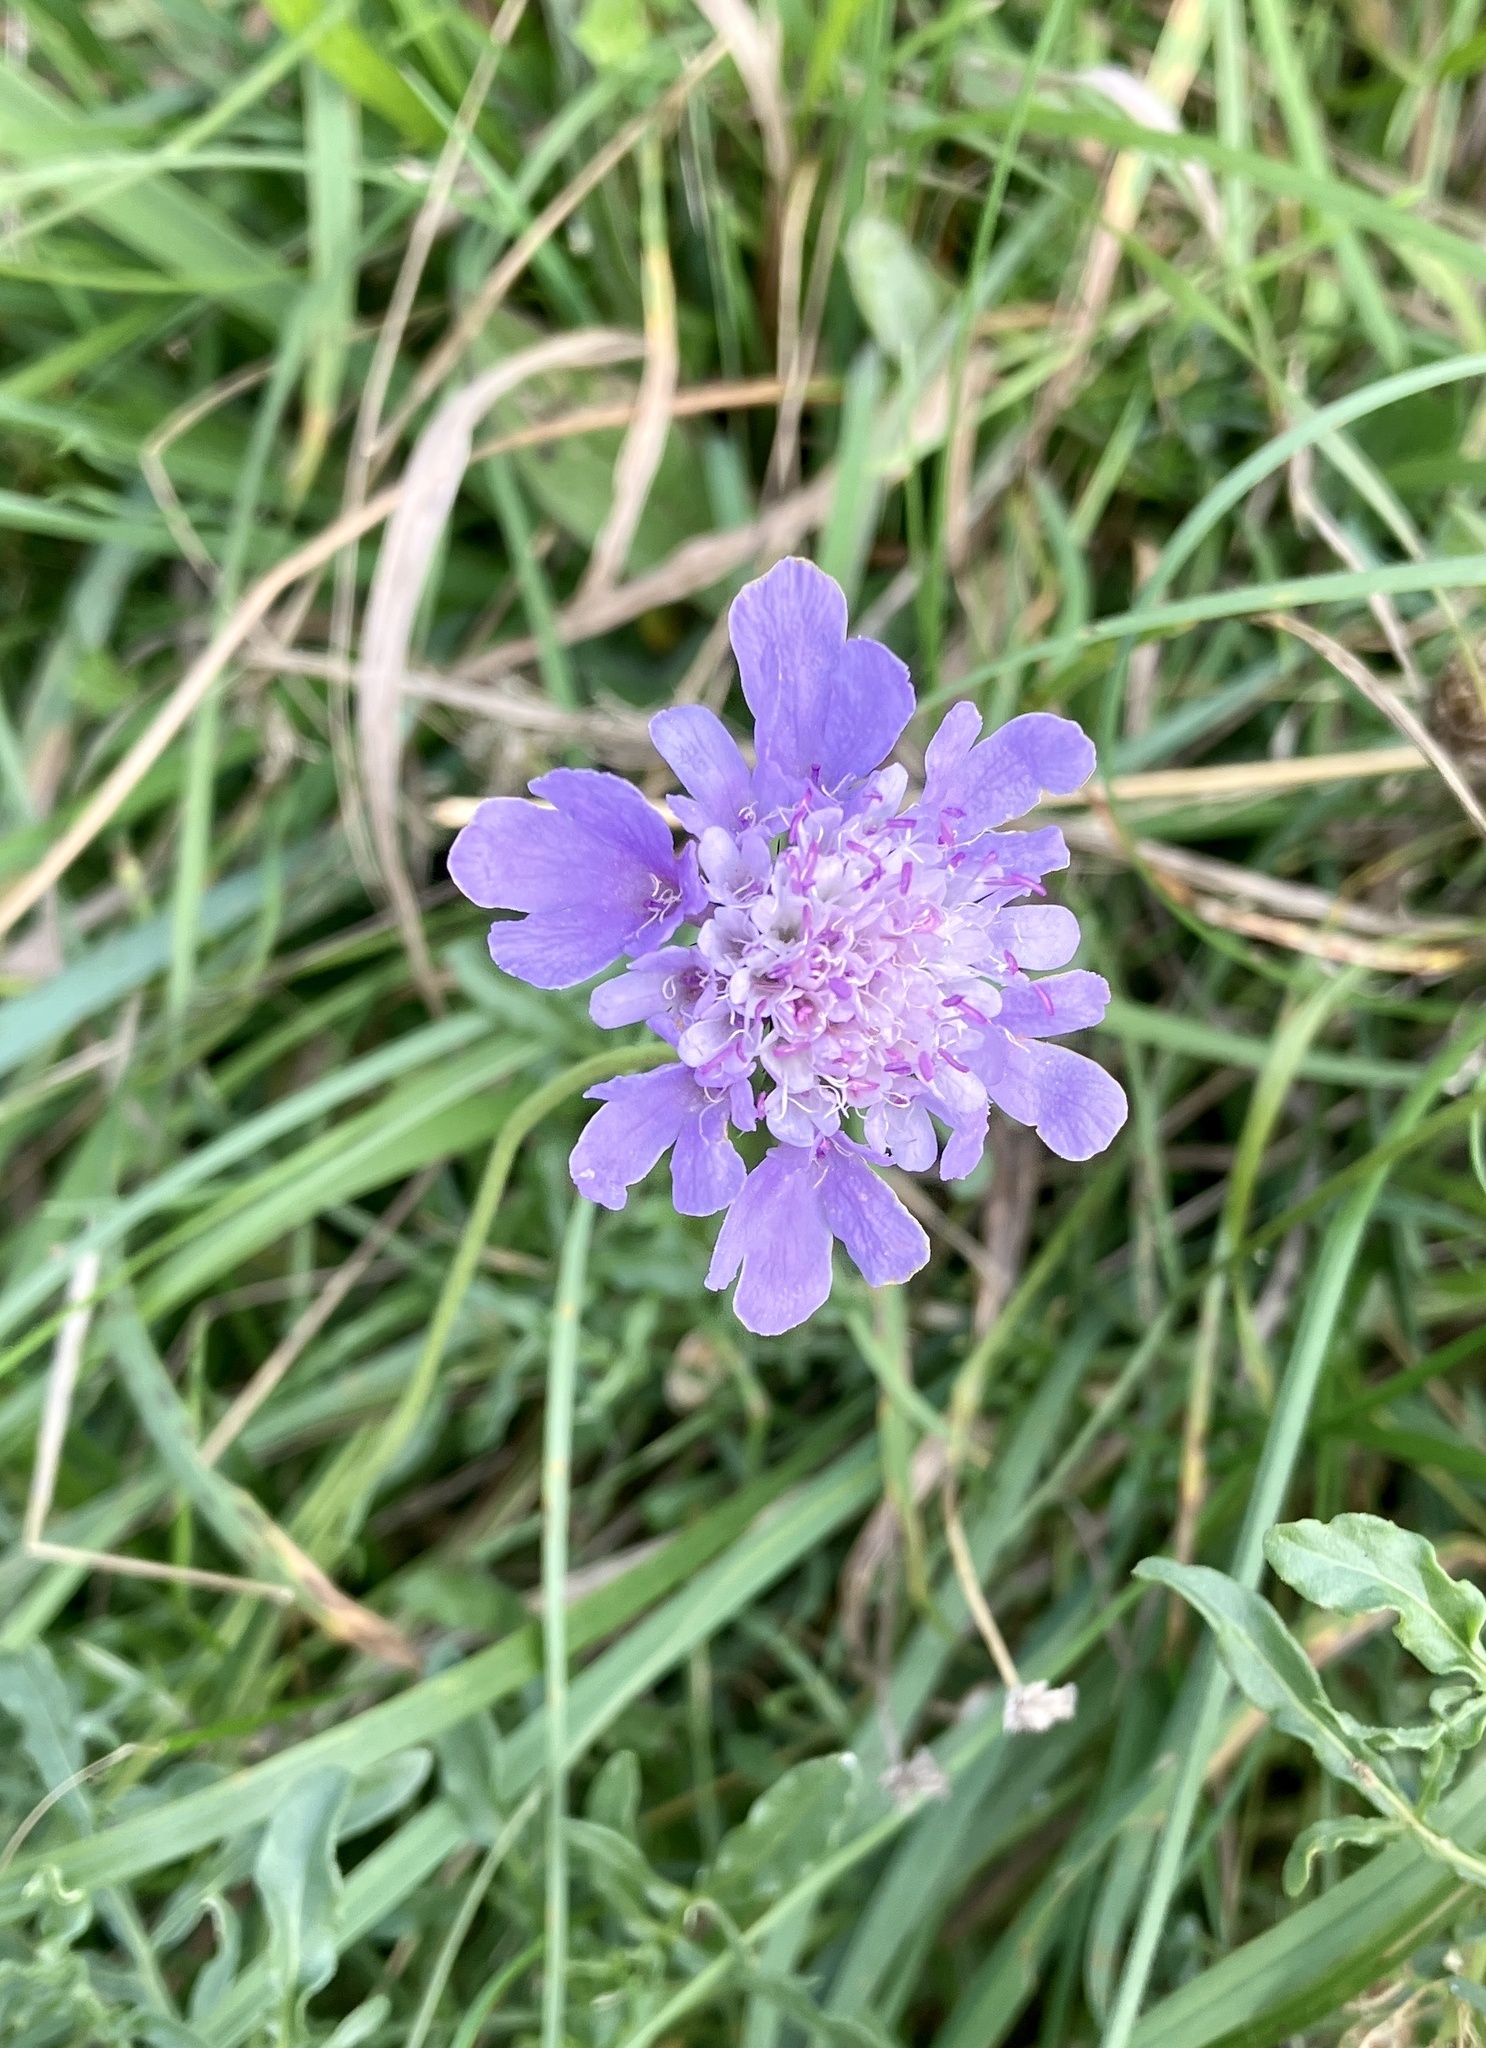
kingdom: Plantae
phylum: Tracheophyta
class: Magnoliopsida
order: Dipsacales
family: Caprifoliaceae
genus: Scabiosa
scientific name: Scabiosa columbaria
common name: Small scabious
